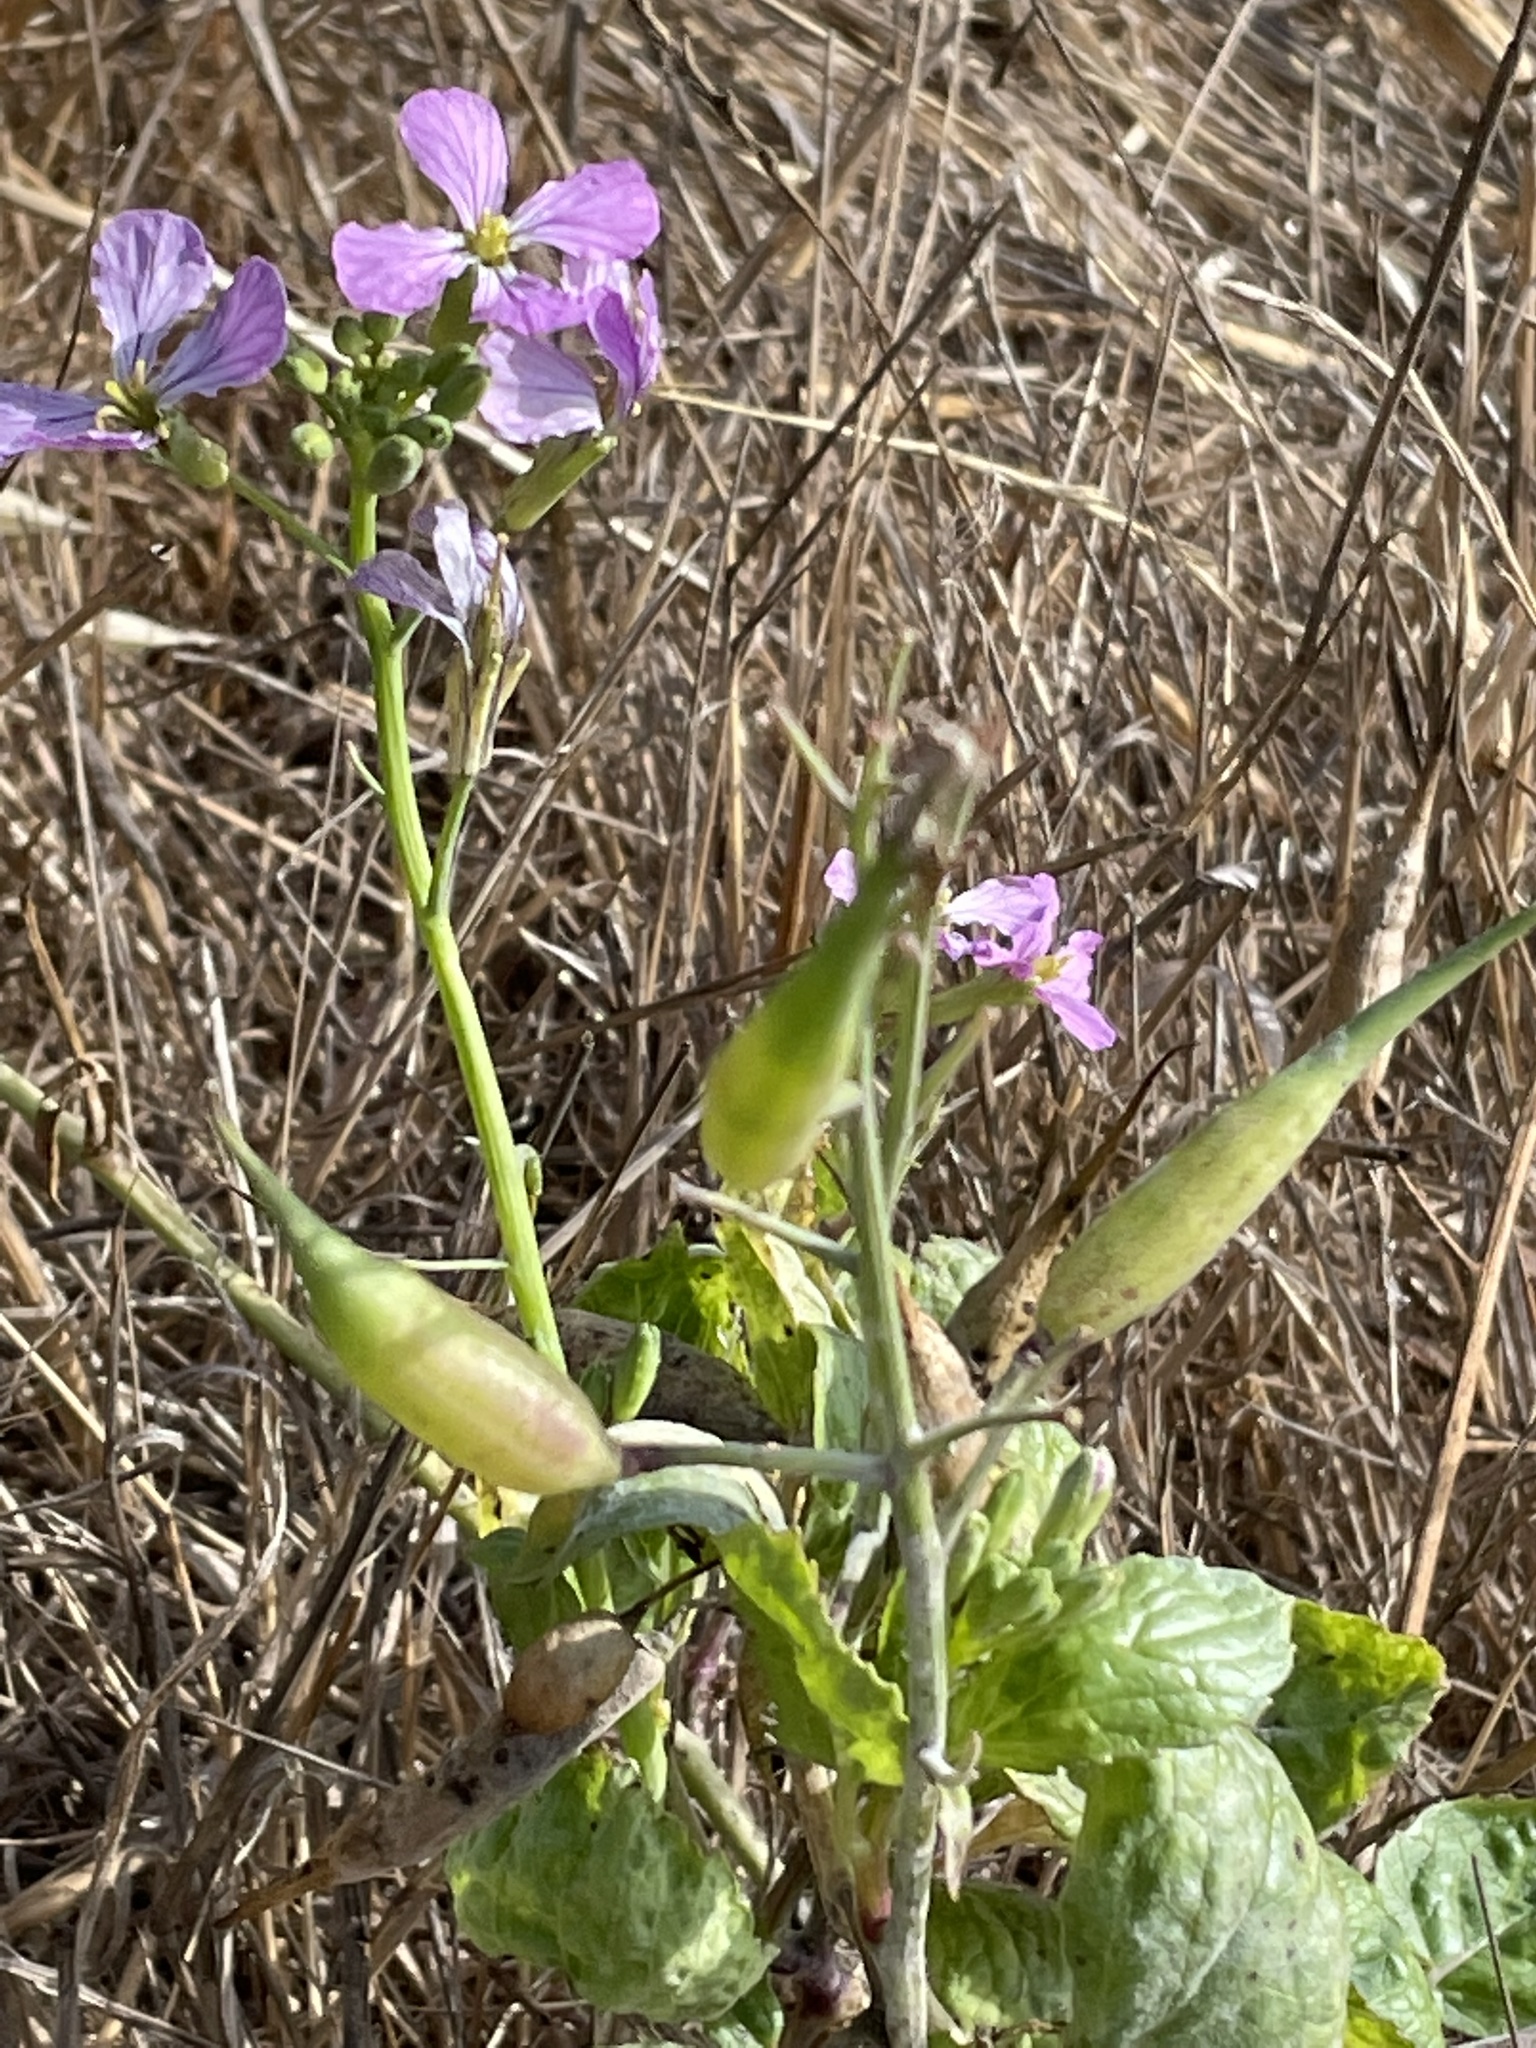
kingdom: Plantae
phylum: Tracheophyta
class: Magnoliopsida
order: Brassicales
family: Brassicaceae
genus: Raphanus
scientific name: Raphanus sativus
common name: Cultivated radish
